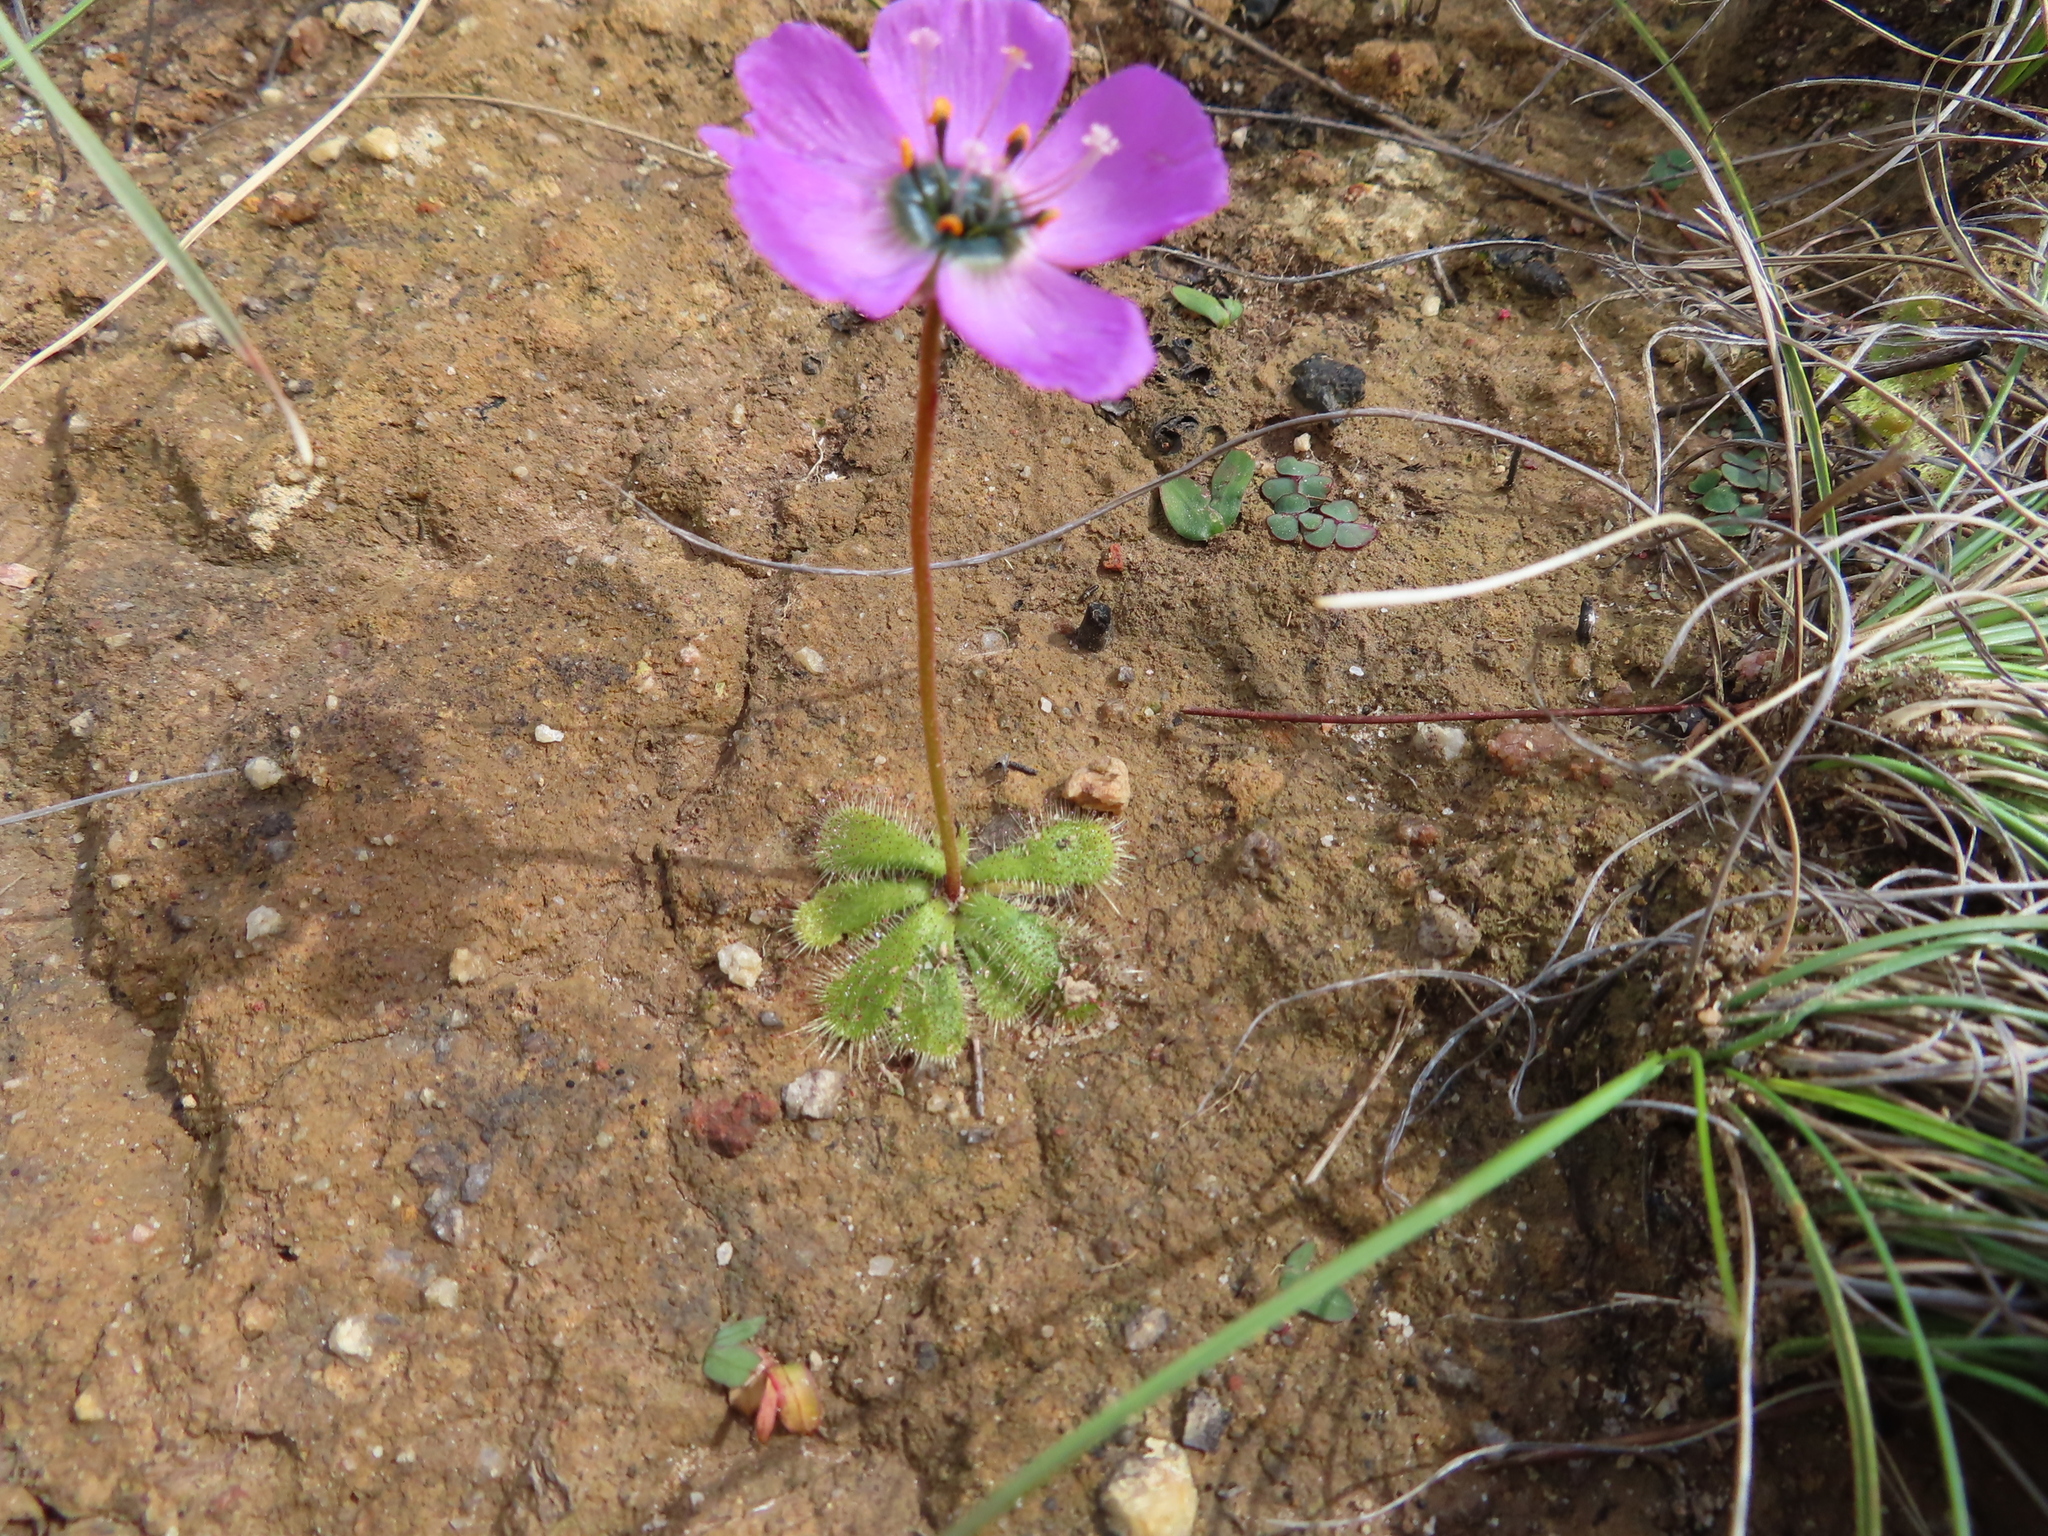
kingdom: Plantae
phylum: Tracheophyta
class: Magnoliopsida
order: Caryophyllales
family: Droseraceae
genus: Drosera
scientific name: Drosera pauciflora
